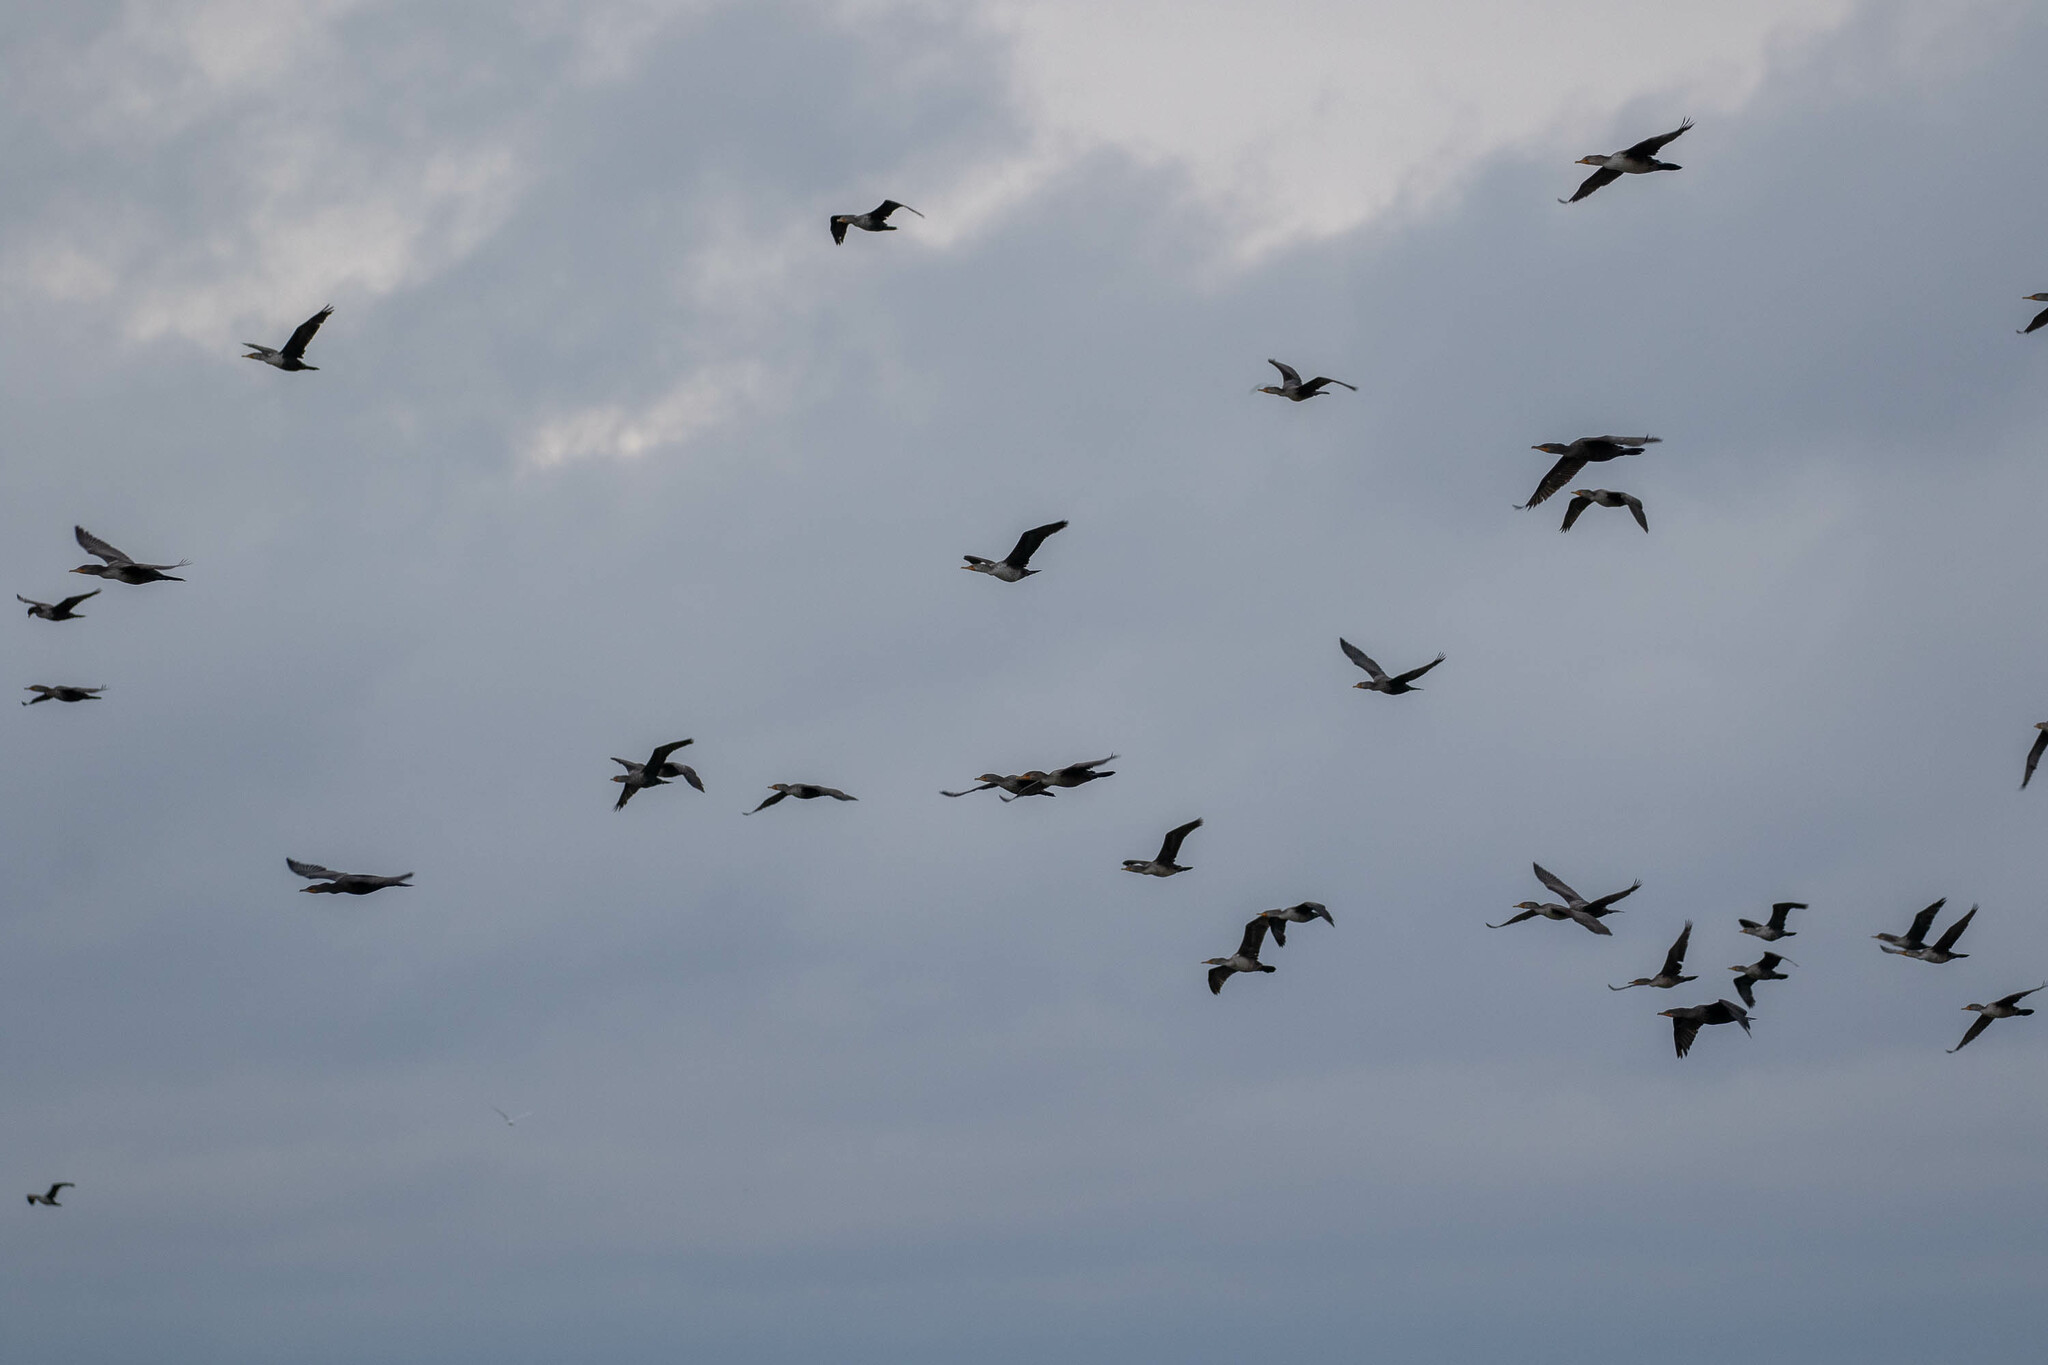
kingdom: Animalia
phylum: Chordata
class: Aves
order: Suliformes
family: Phalacrocoracidae
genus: Phalacrocorax
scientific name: Phalacrocorax auritus
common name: Double-crested cormorant
